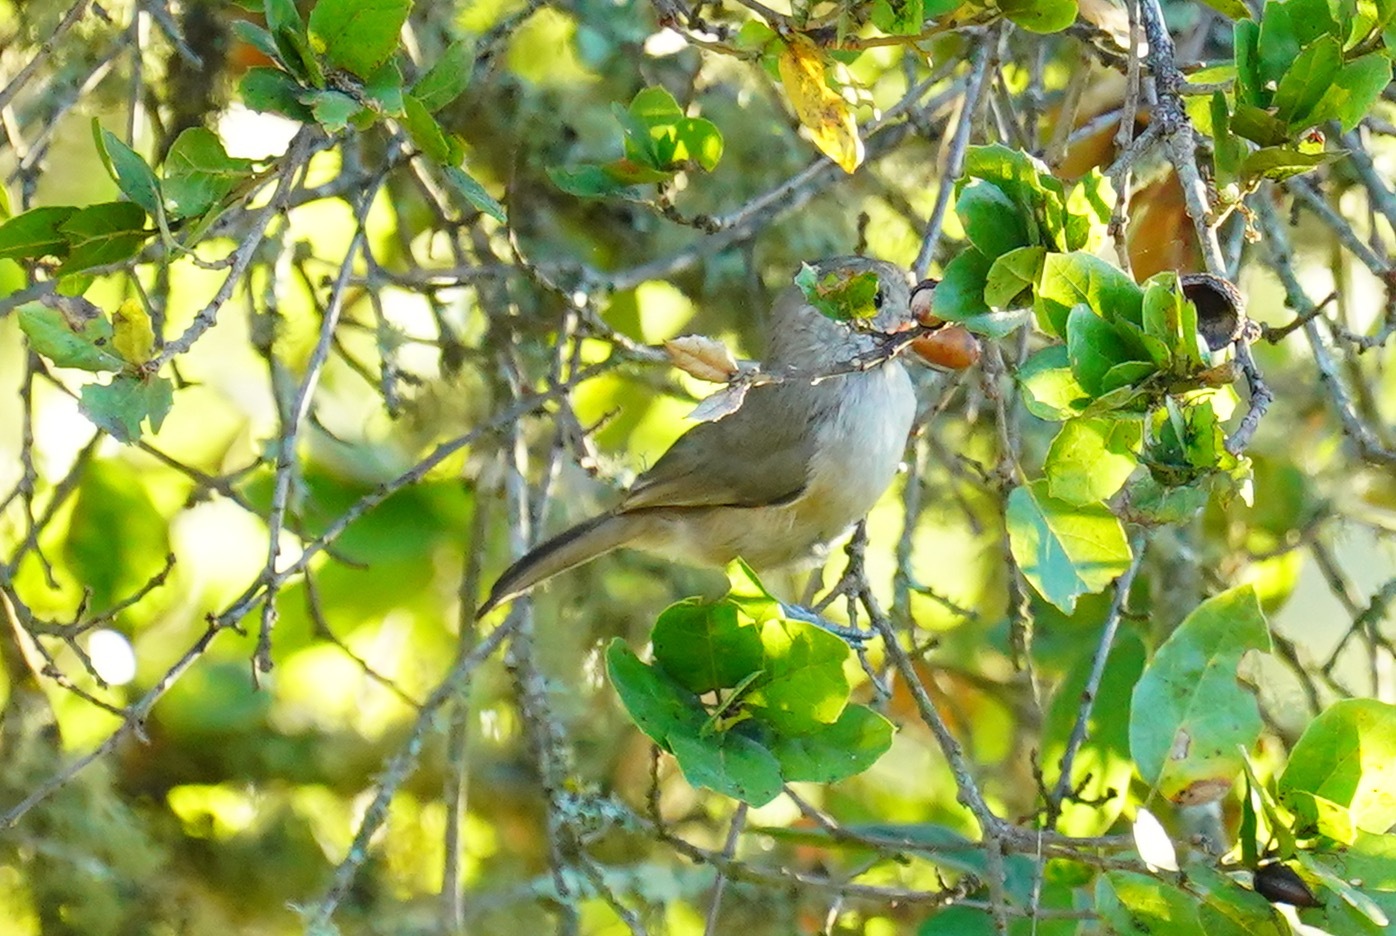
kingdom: Animalia
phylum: Chordata
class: Aves
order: Passeriformes
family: Paridae
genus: Baeolophus
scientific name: Baeolophus inornatus
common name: Oak titmouse
